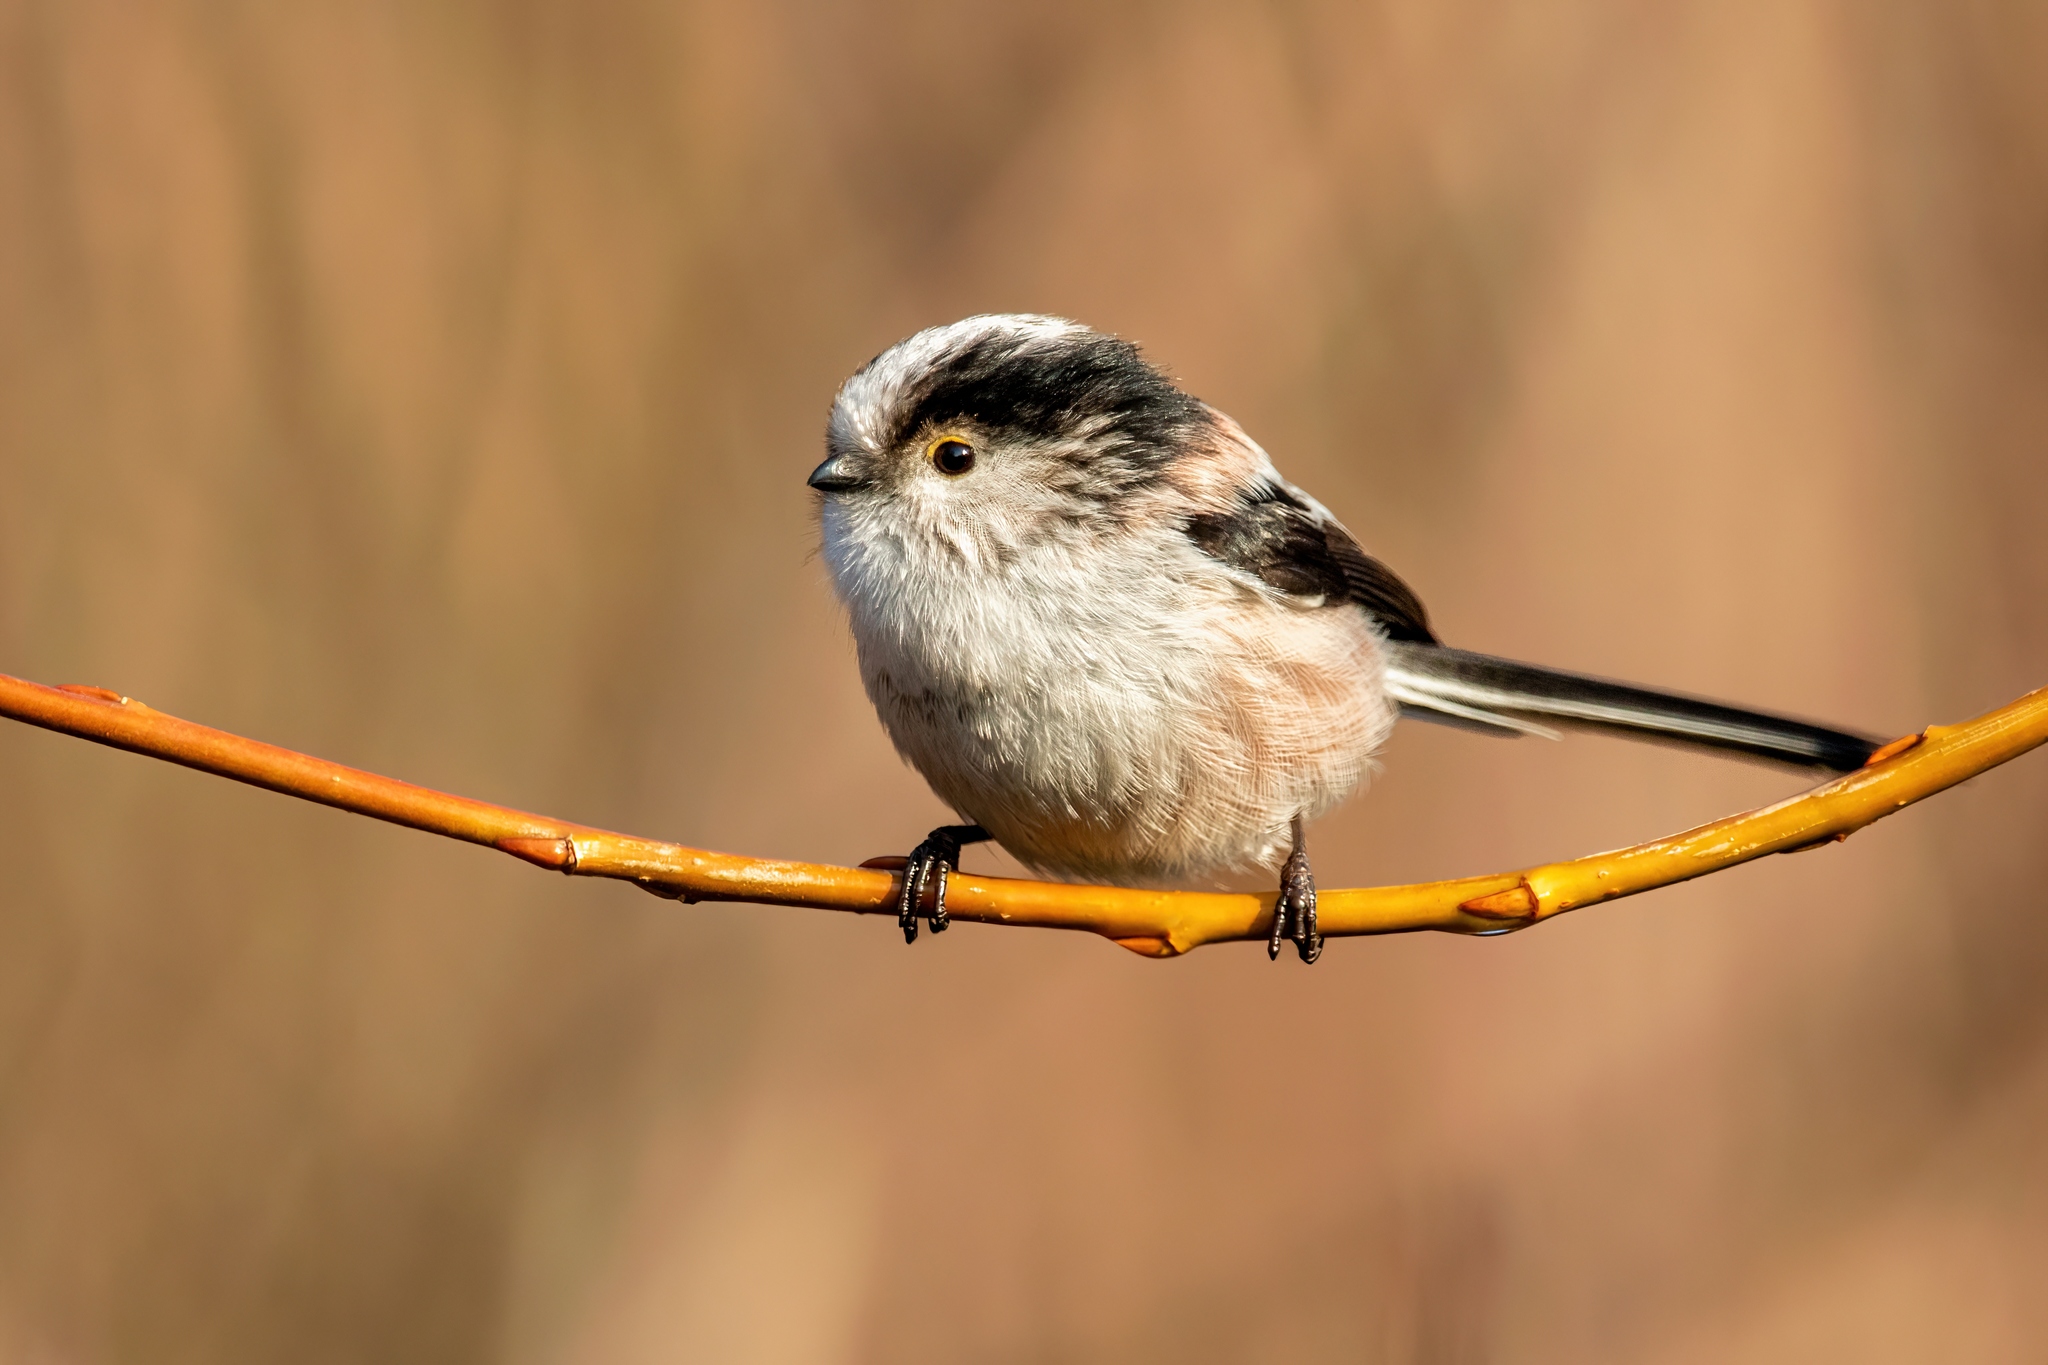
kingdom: Animalia
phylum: Chordata
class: Aves
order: Passeriformes
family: Aegithalidae
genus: Aegithalos
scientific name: Aegithalos caudatus
